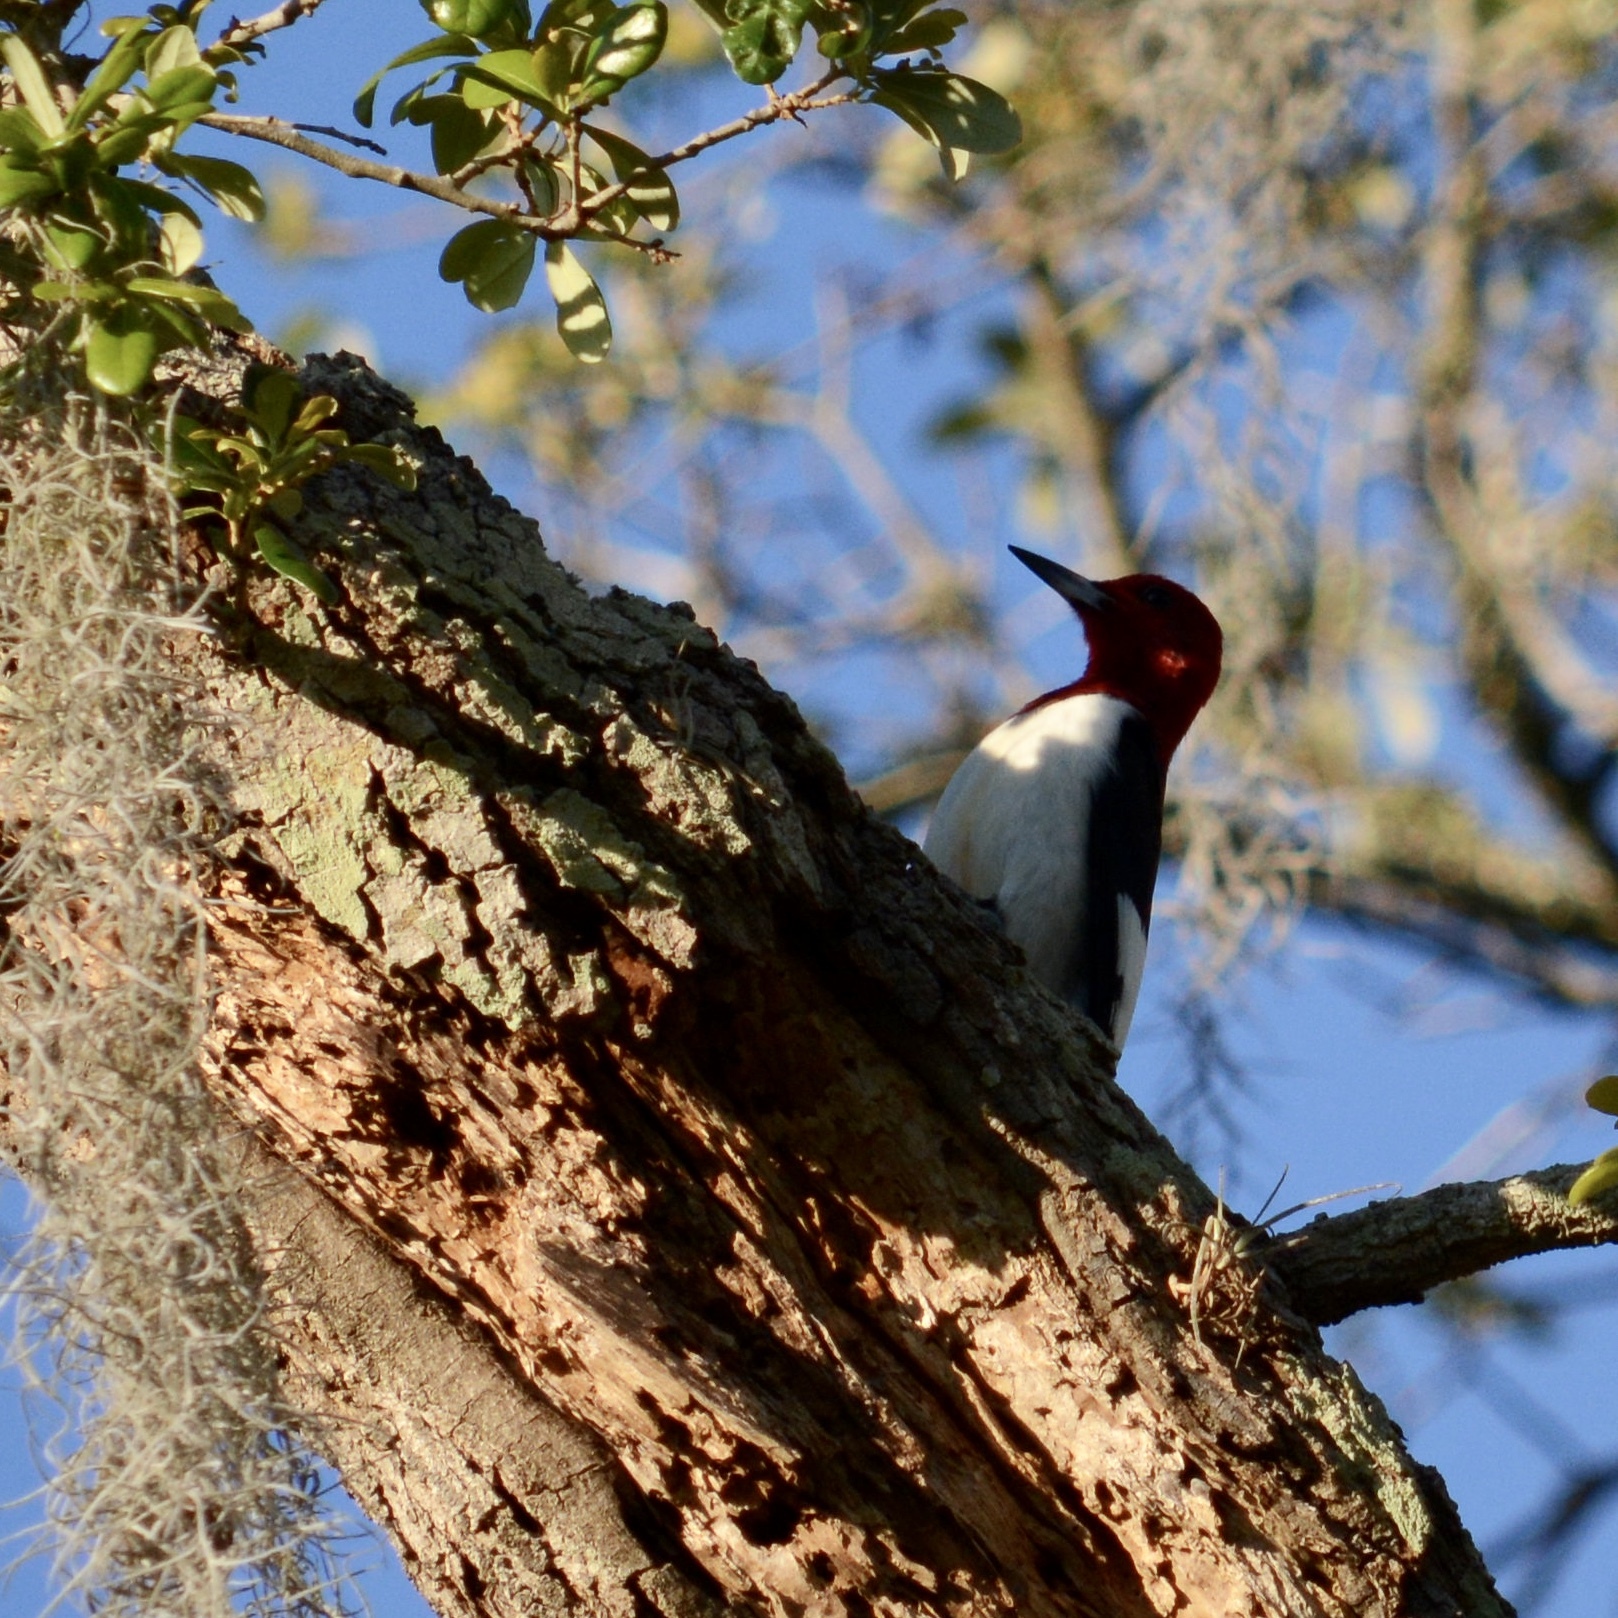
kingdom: Animalia
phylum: Chordata
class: Aves
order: Piciformes
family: Picidae
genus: Melanerpes
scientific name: Melanerpes erythrocephalus
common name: Red-headed woodpecker
